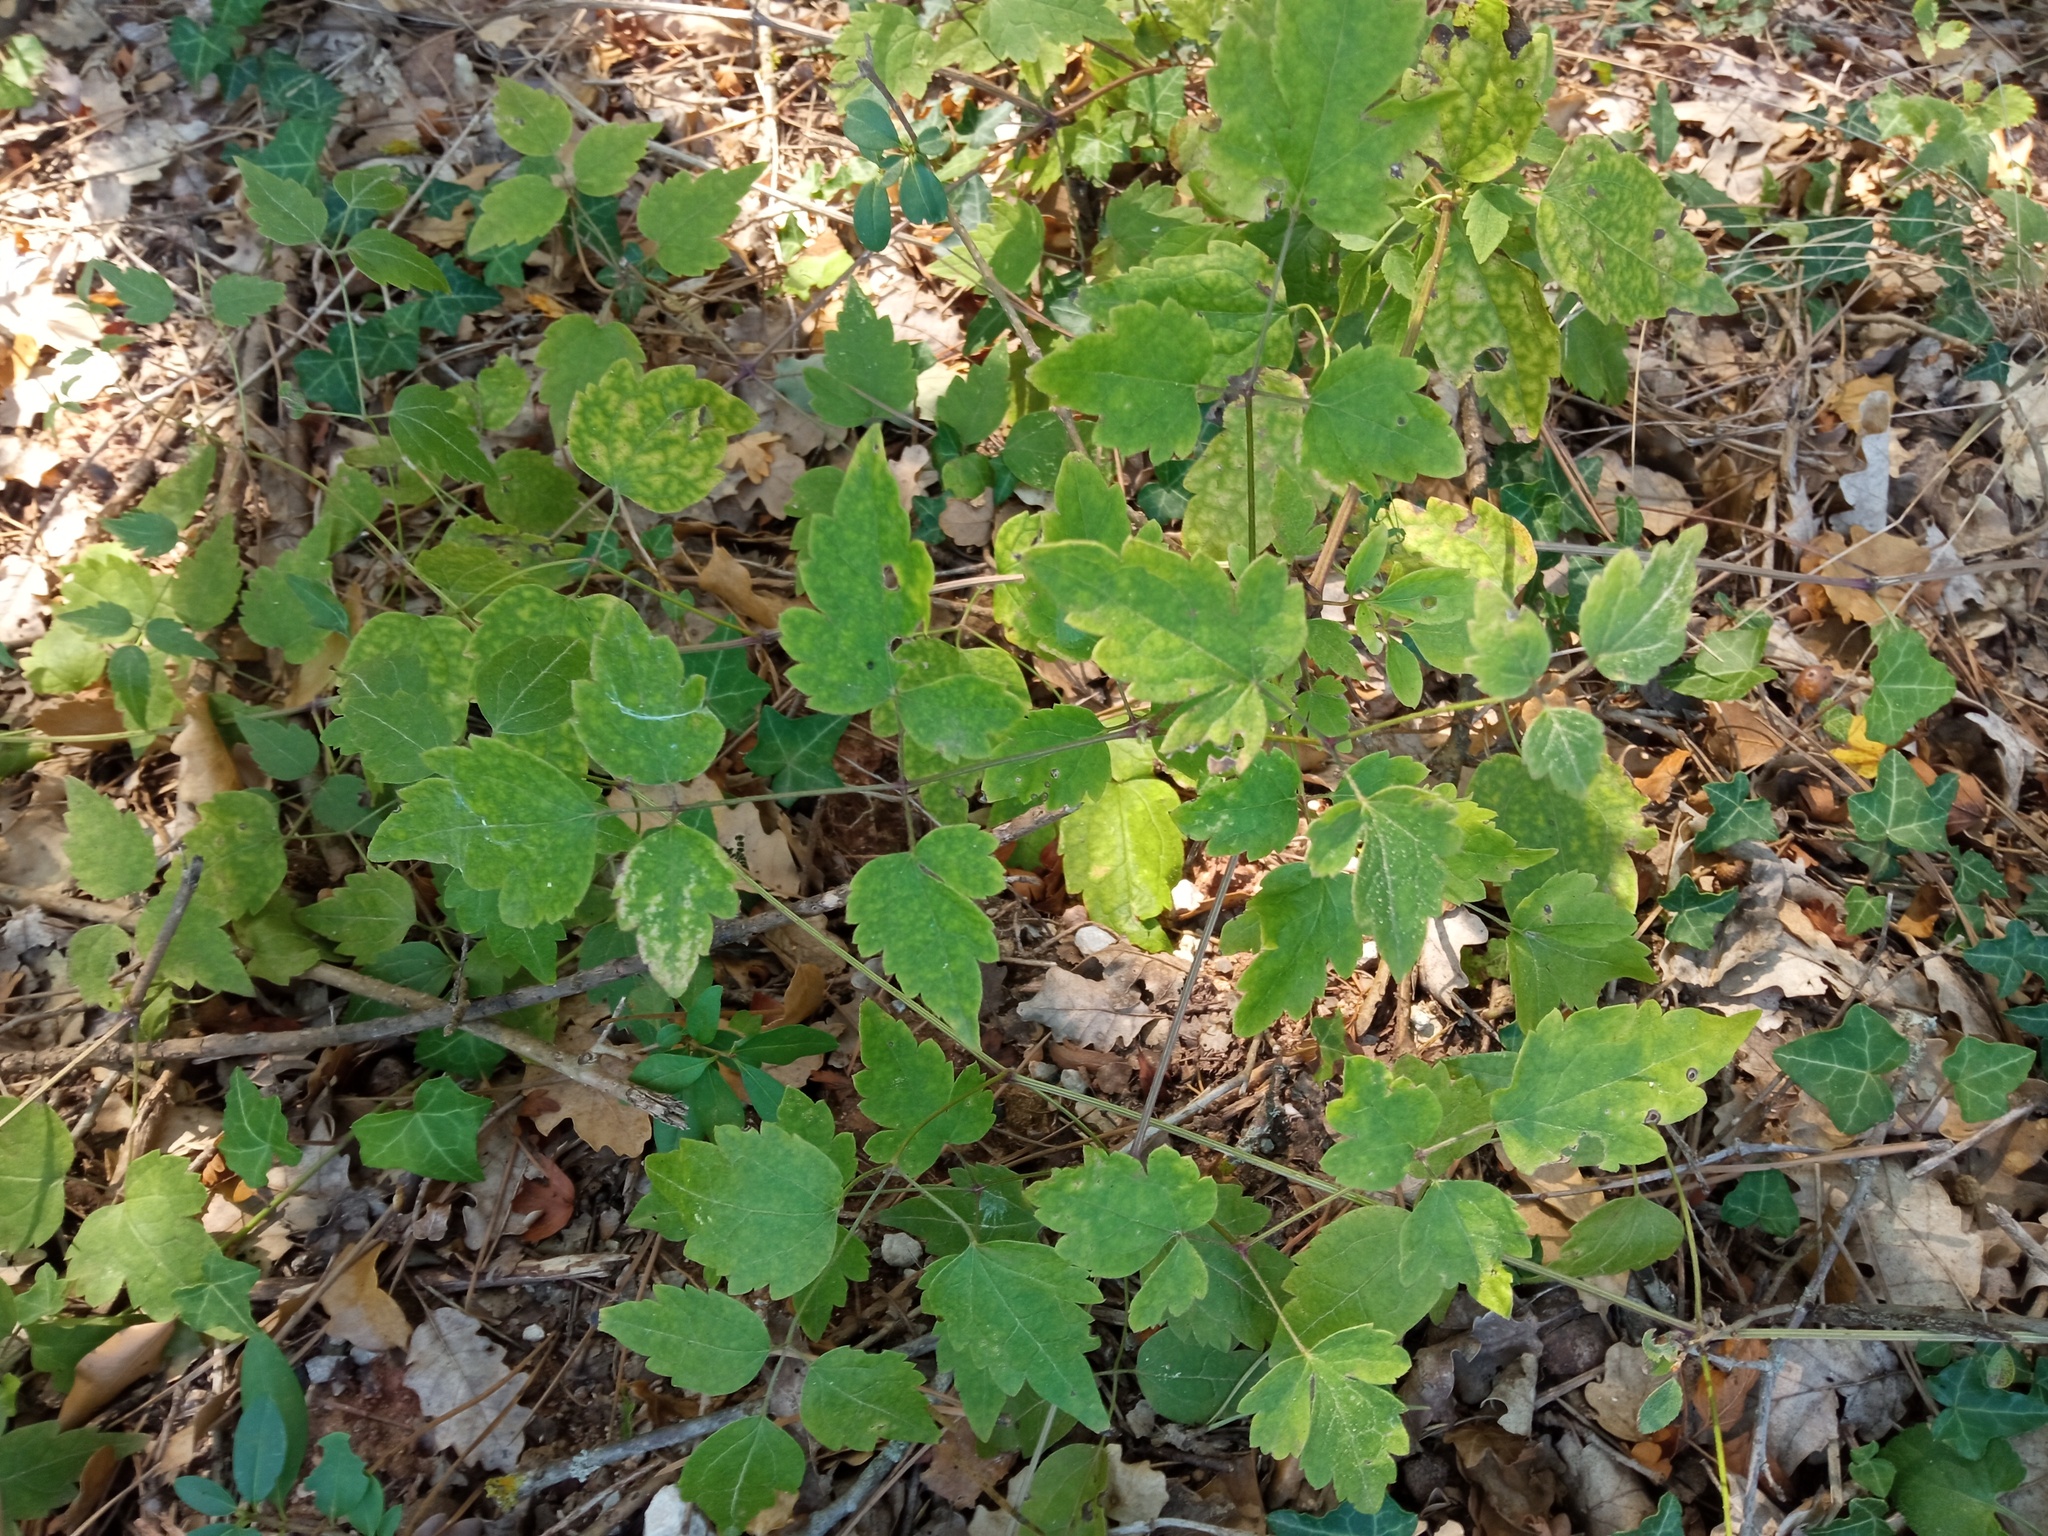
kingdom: Plantae
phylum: Tracheophyta
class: Magnoliopsida
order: Ranunculales
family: Ranunculaceae
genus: Clematis
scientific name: Clematis vitalba
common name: Evergreen clematis
